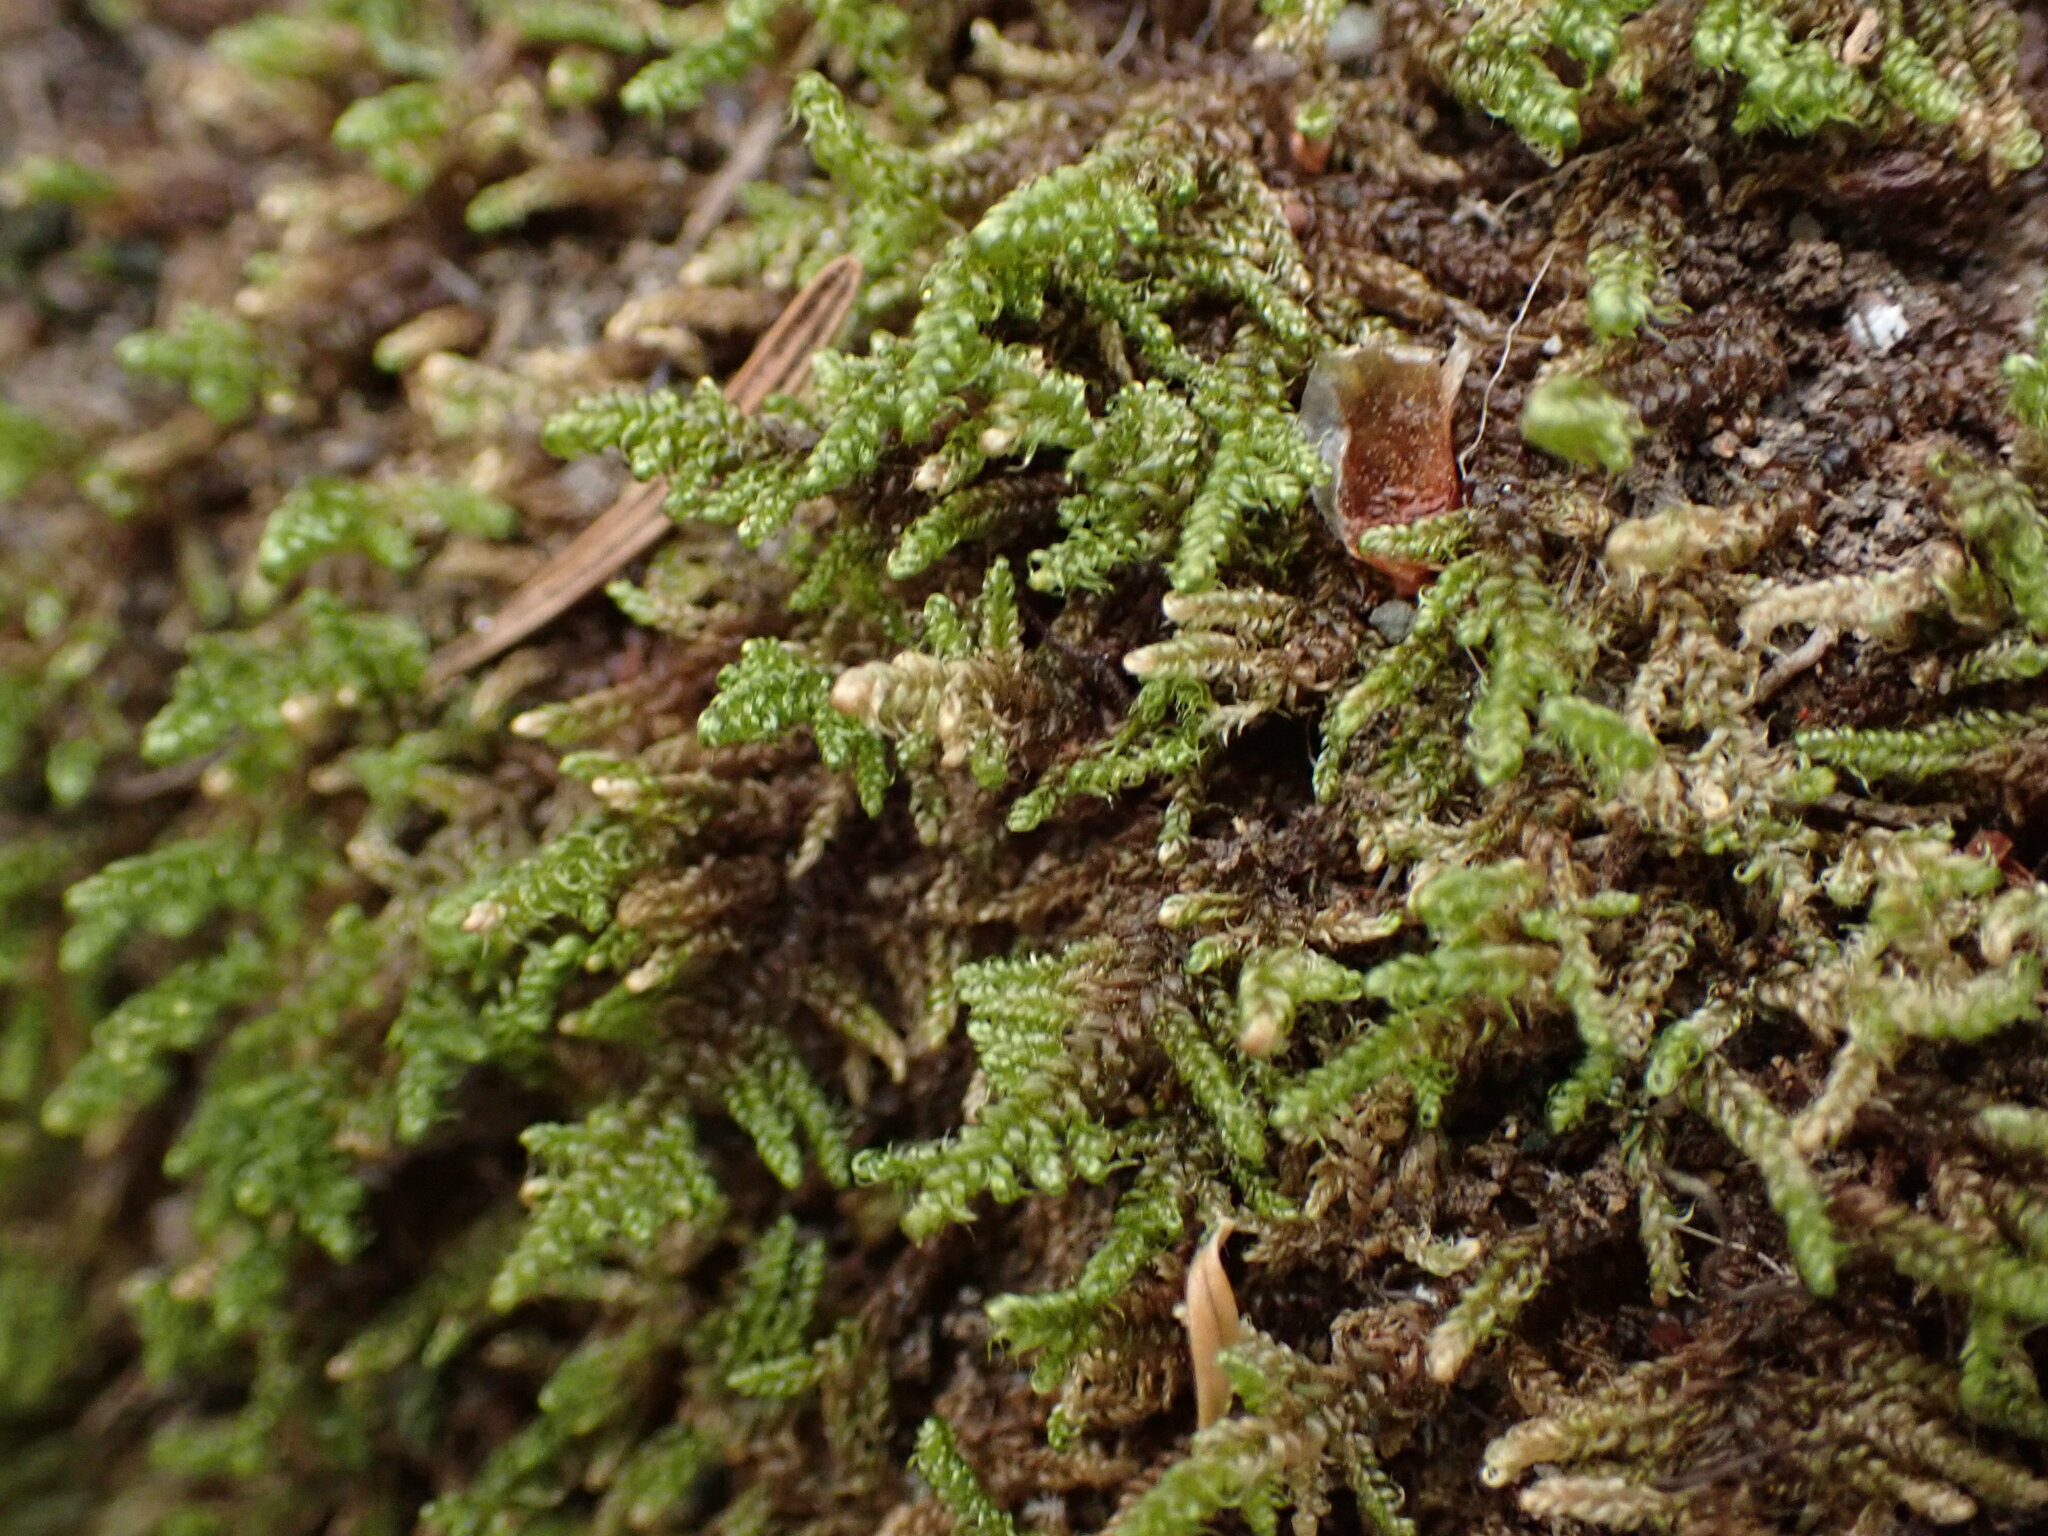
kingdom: Plantae
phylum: Bryophyta
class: Bryopsida
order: Hypnales
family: Pylaisiaceae
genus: Calliergonellopsis
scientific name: Calliergonellopsis dieckii
